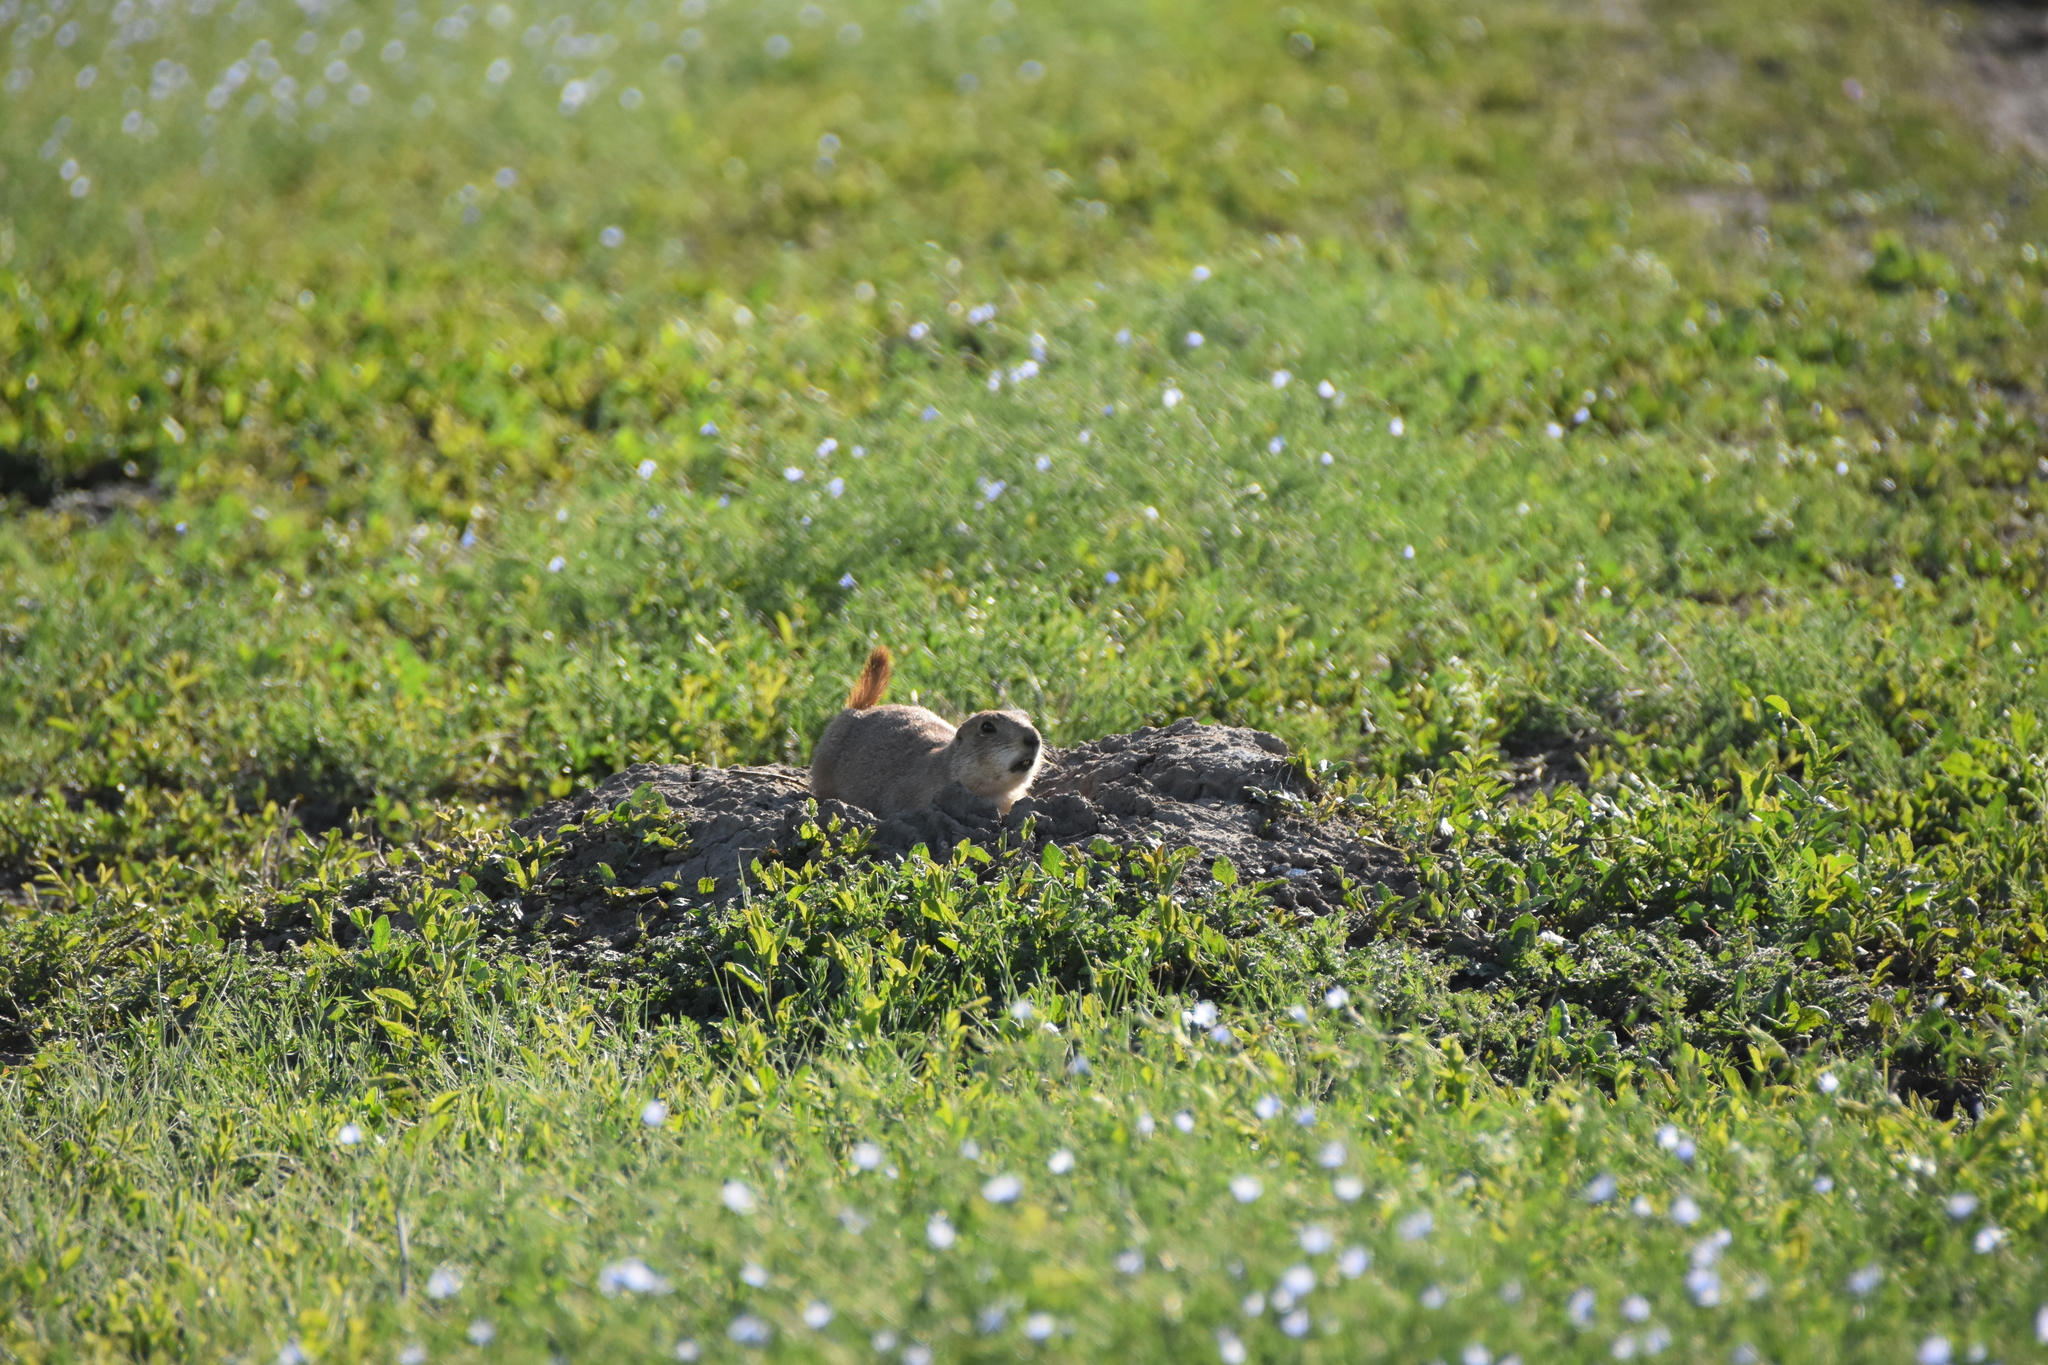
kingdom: Animalia
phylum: Chordata
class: Mammalia
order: Rodentia
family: Sciuridae
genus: Cynomys
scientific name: Cynomys ludovicianus
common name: Black-tailed prairie dog
